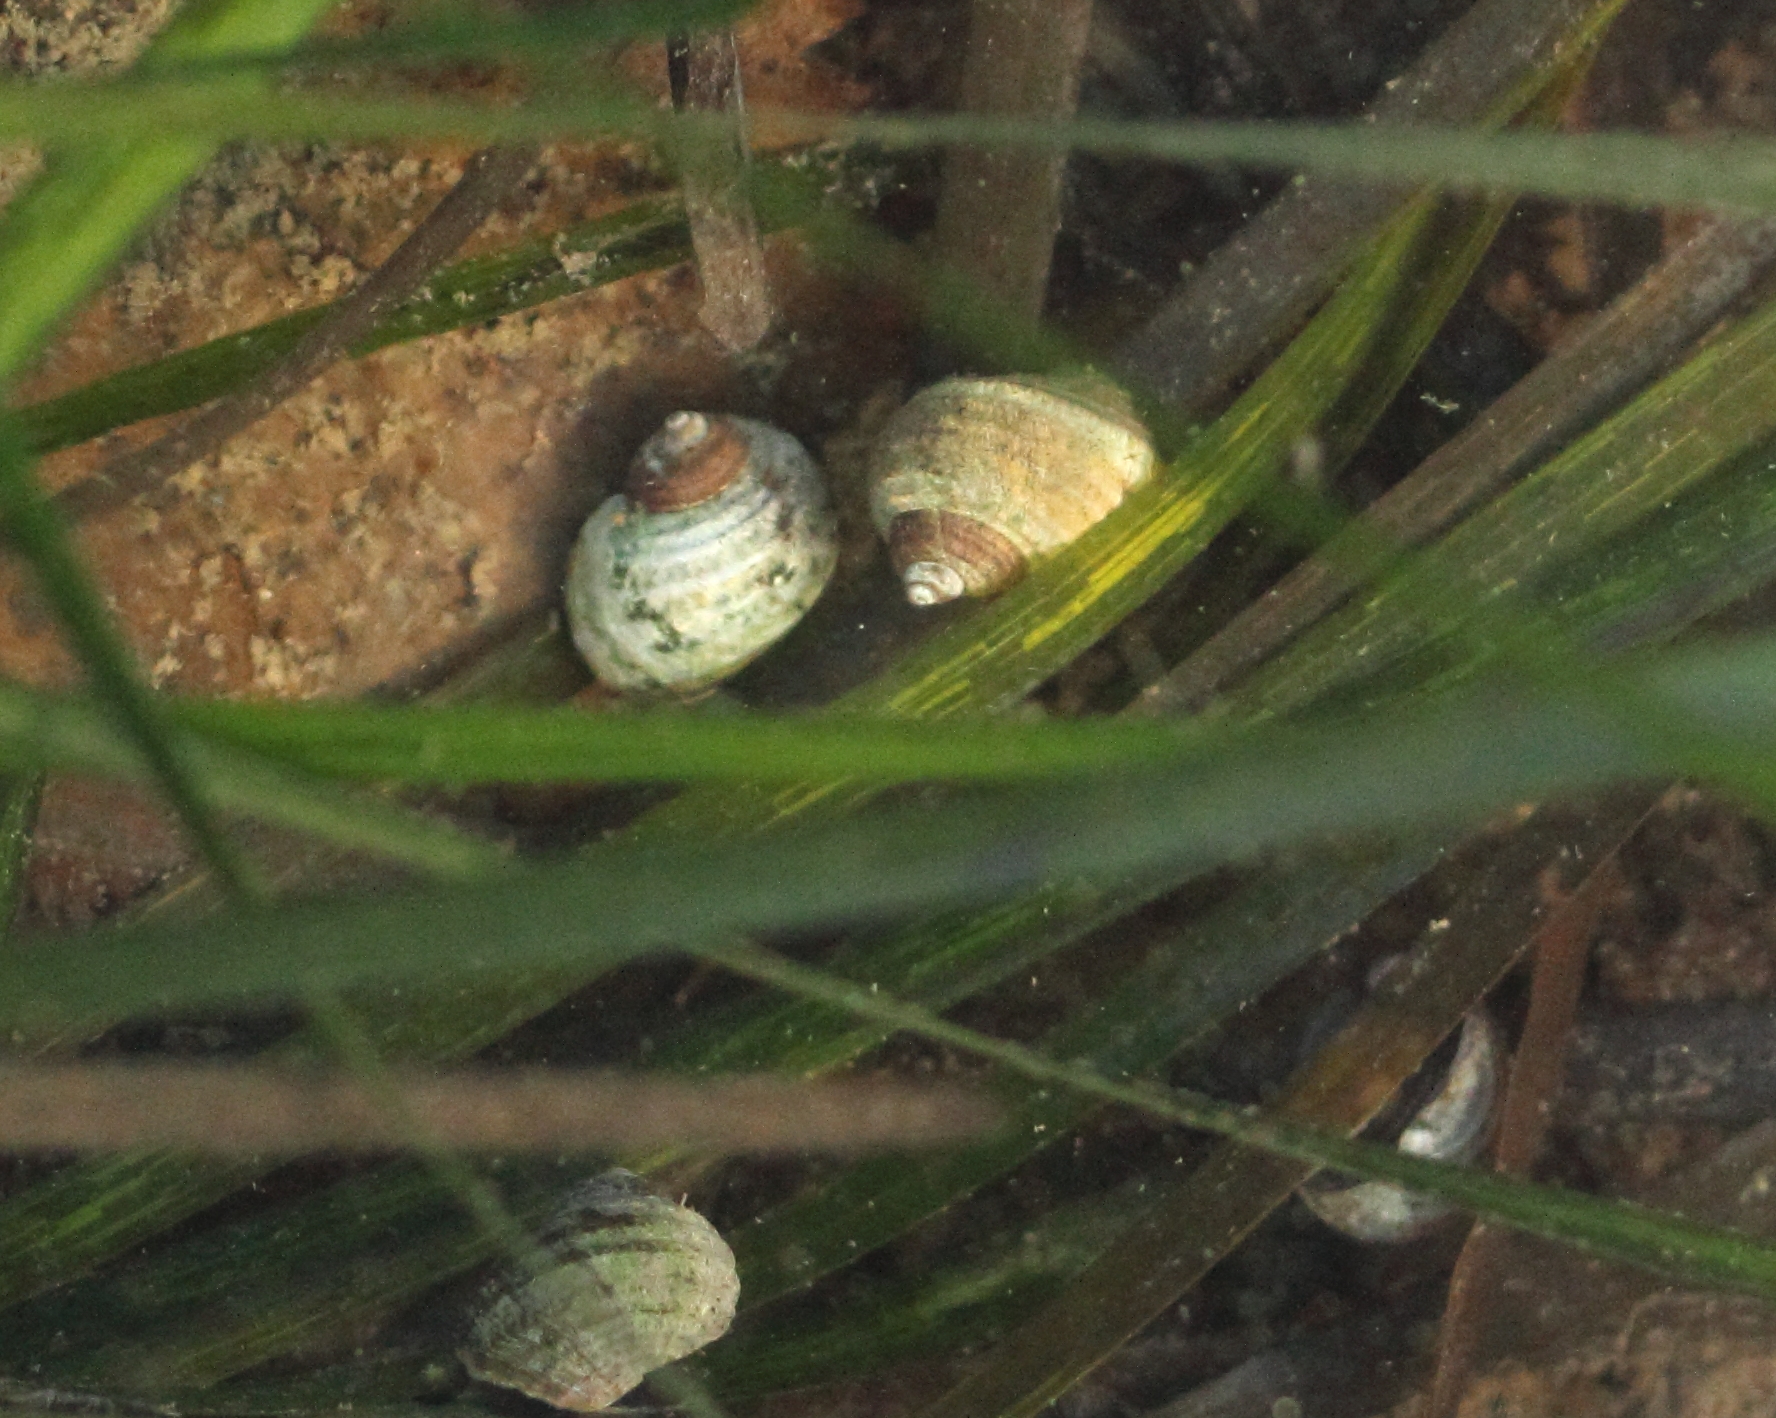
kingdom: Animalia
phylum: Mollusca
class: Gastropoda
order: Littorinimorpha
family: Littorinidae
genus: Littorina
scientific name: Littorina sitkana
